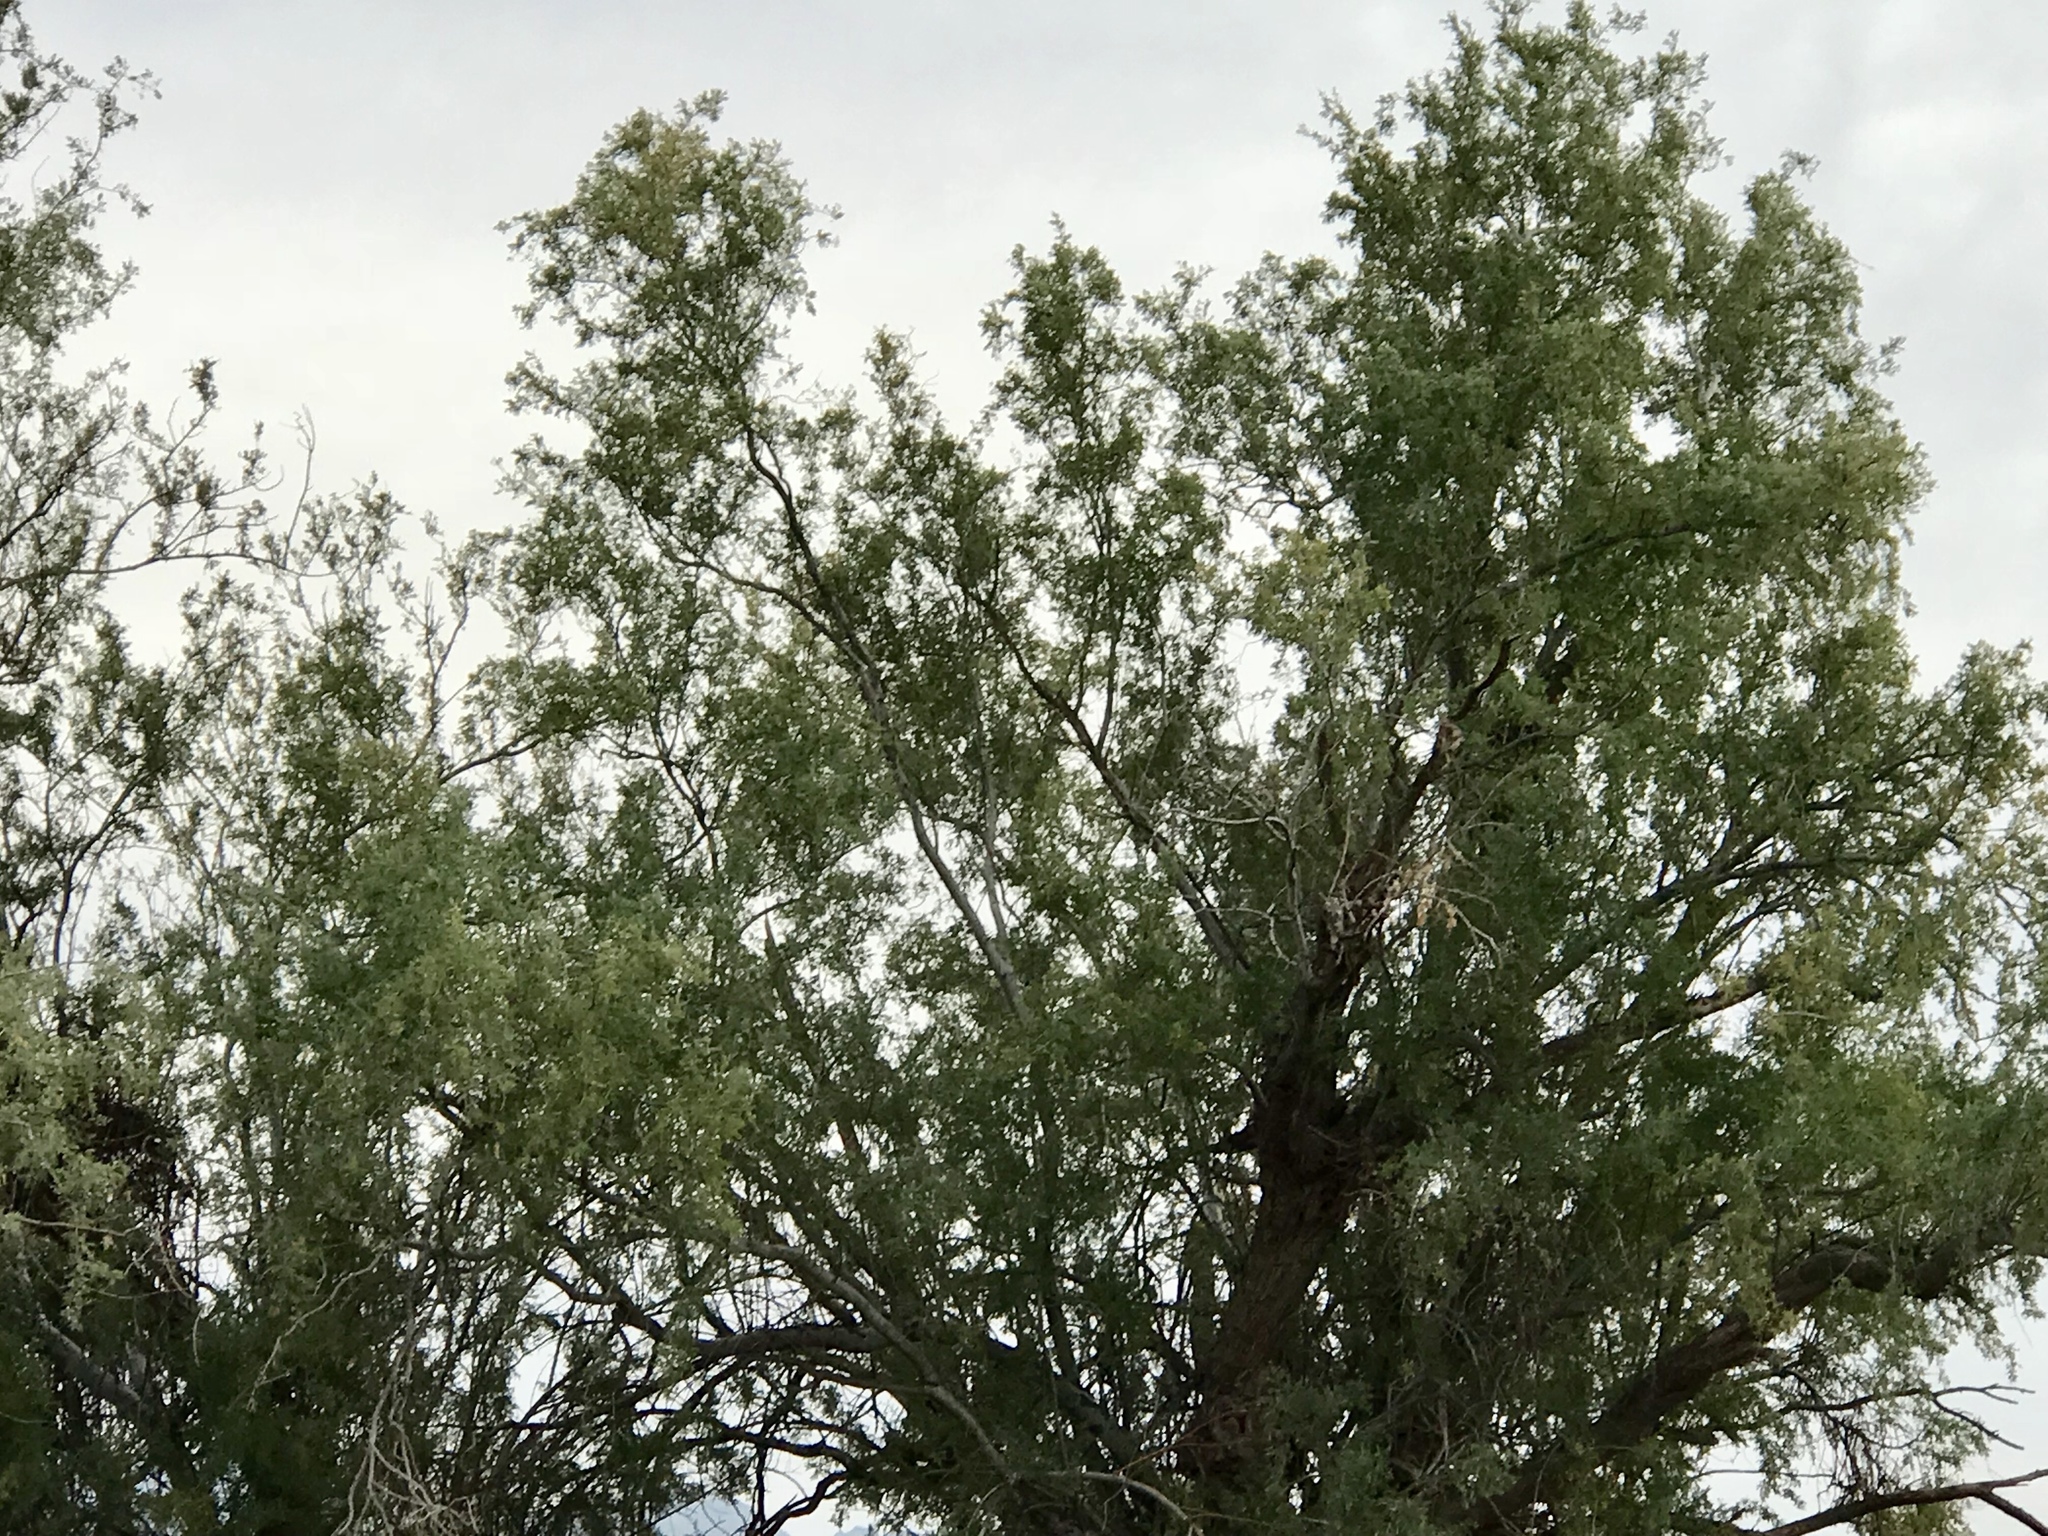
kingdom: Plantae
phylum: Tracheophyta
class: Magnoliopsida
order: Fabales
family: Fabaceae
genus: Olneya
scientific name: Olneya tesota
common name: Desert ironwood
